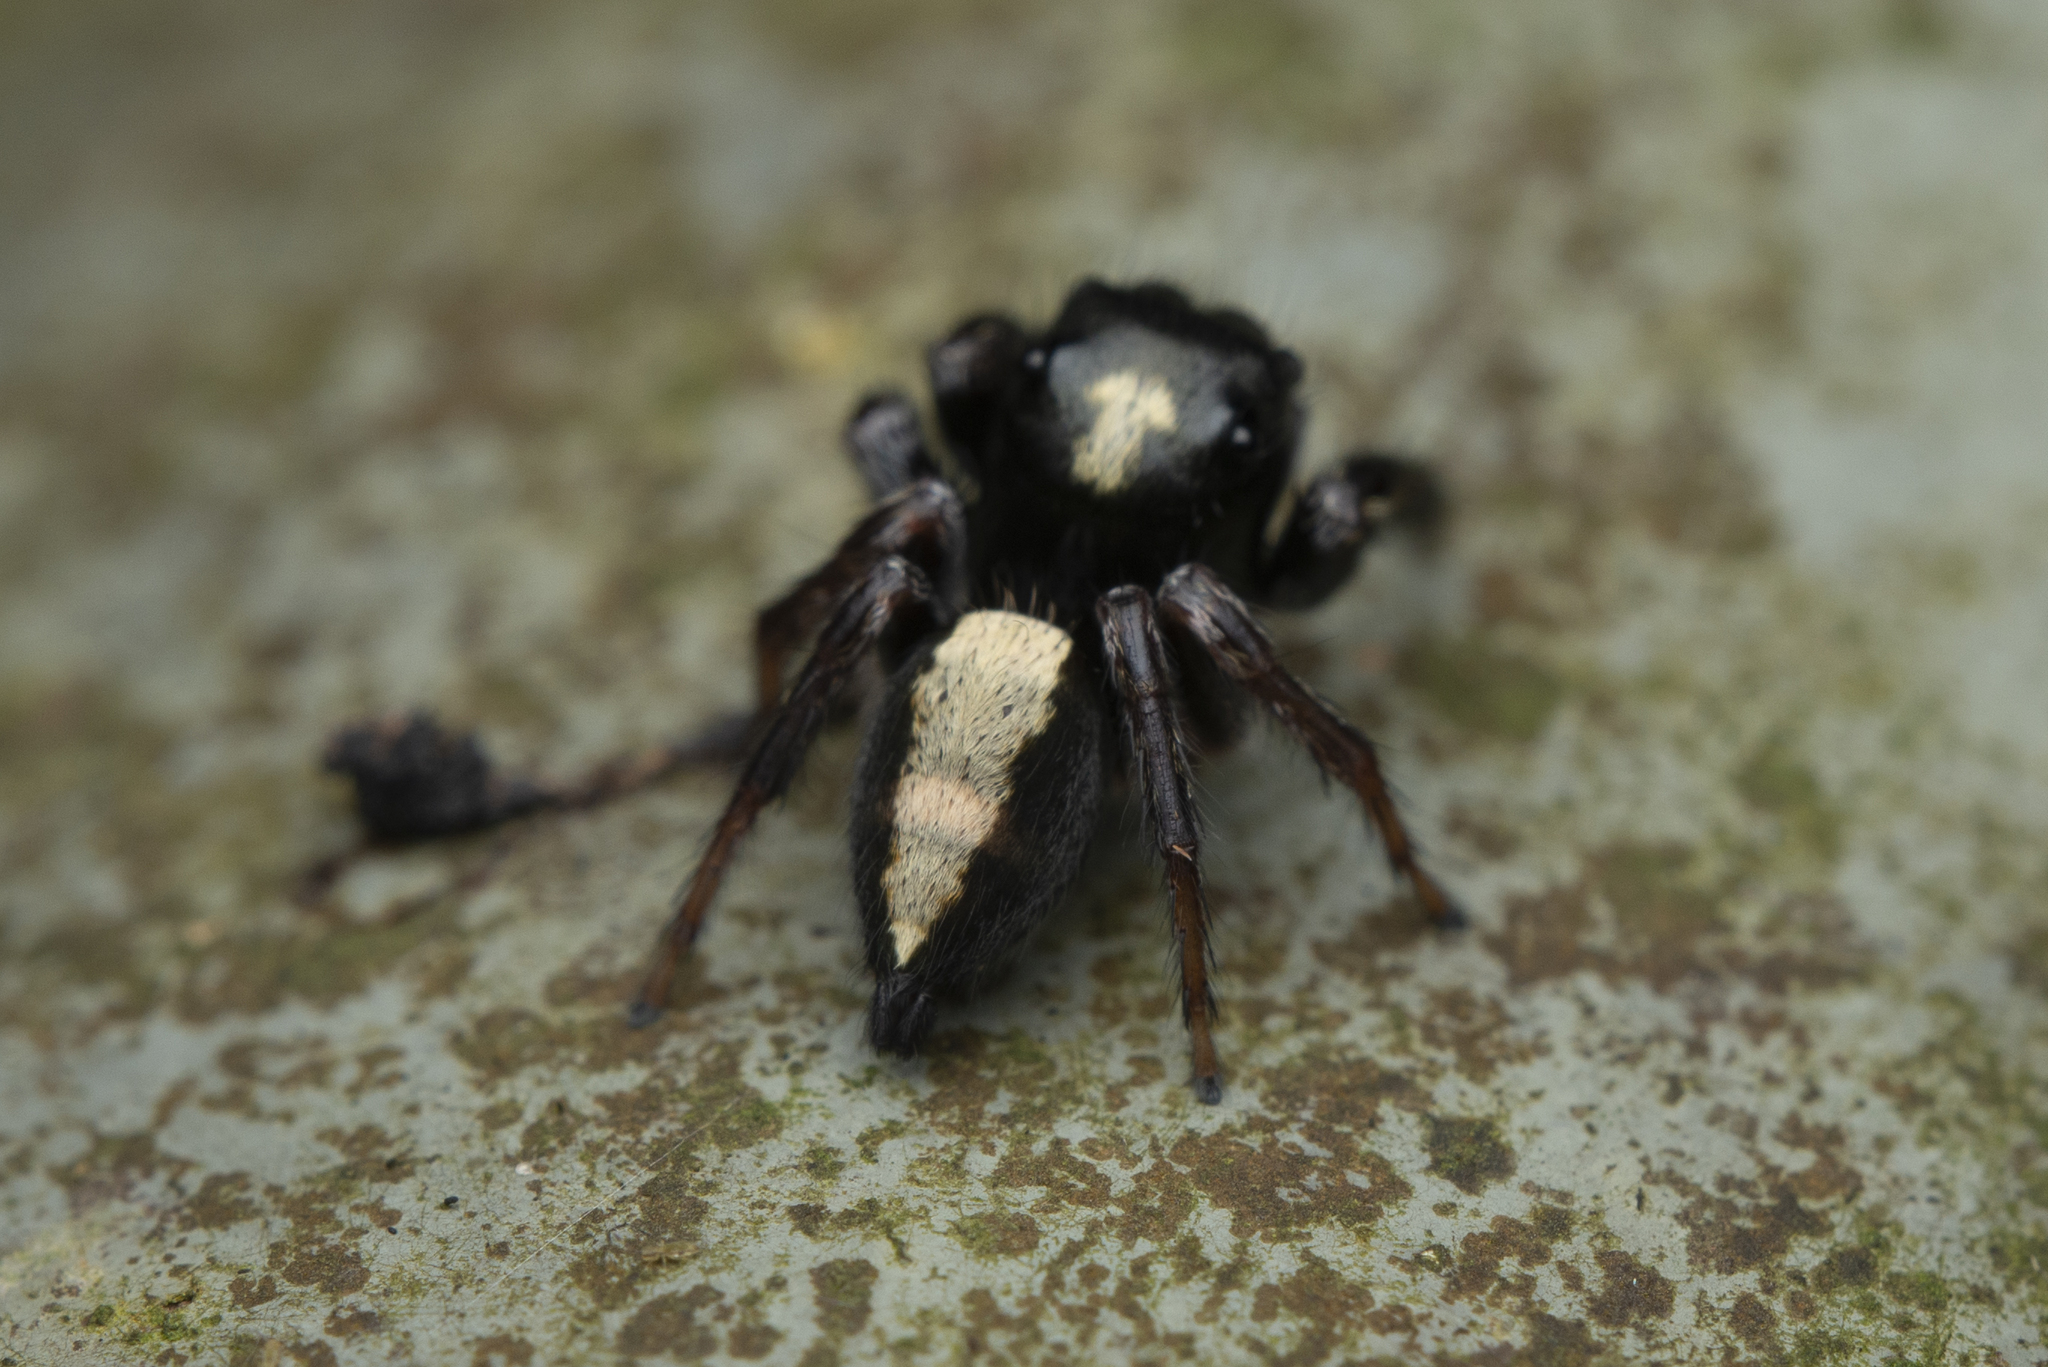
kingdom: Animalia
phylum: Arthropoda
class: Arachnida
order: Araneae
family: Salticidae
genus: Ptocasius
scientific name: Ptocasius strupifer
